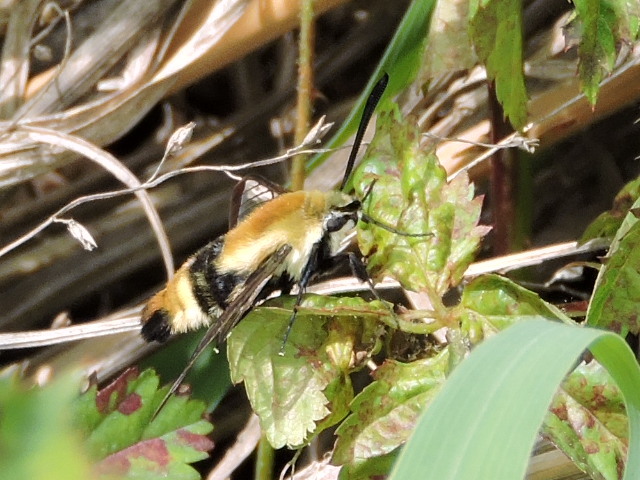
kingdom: Animalia
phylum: Arthropoda
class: Insecta
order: Lepidoptera
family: Sphingidae
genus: Hemaris
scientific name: Hemaris diffinis
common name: Bumblebee moth
